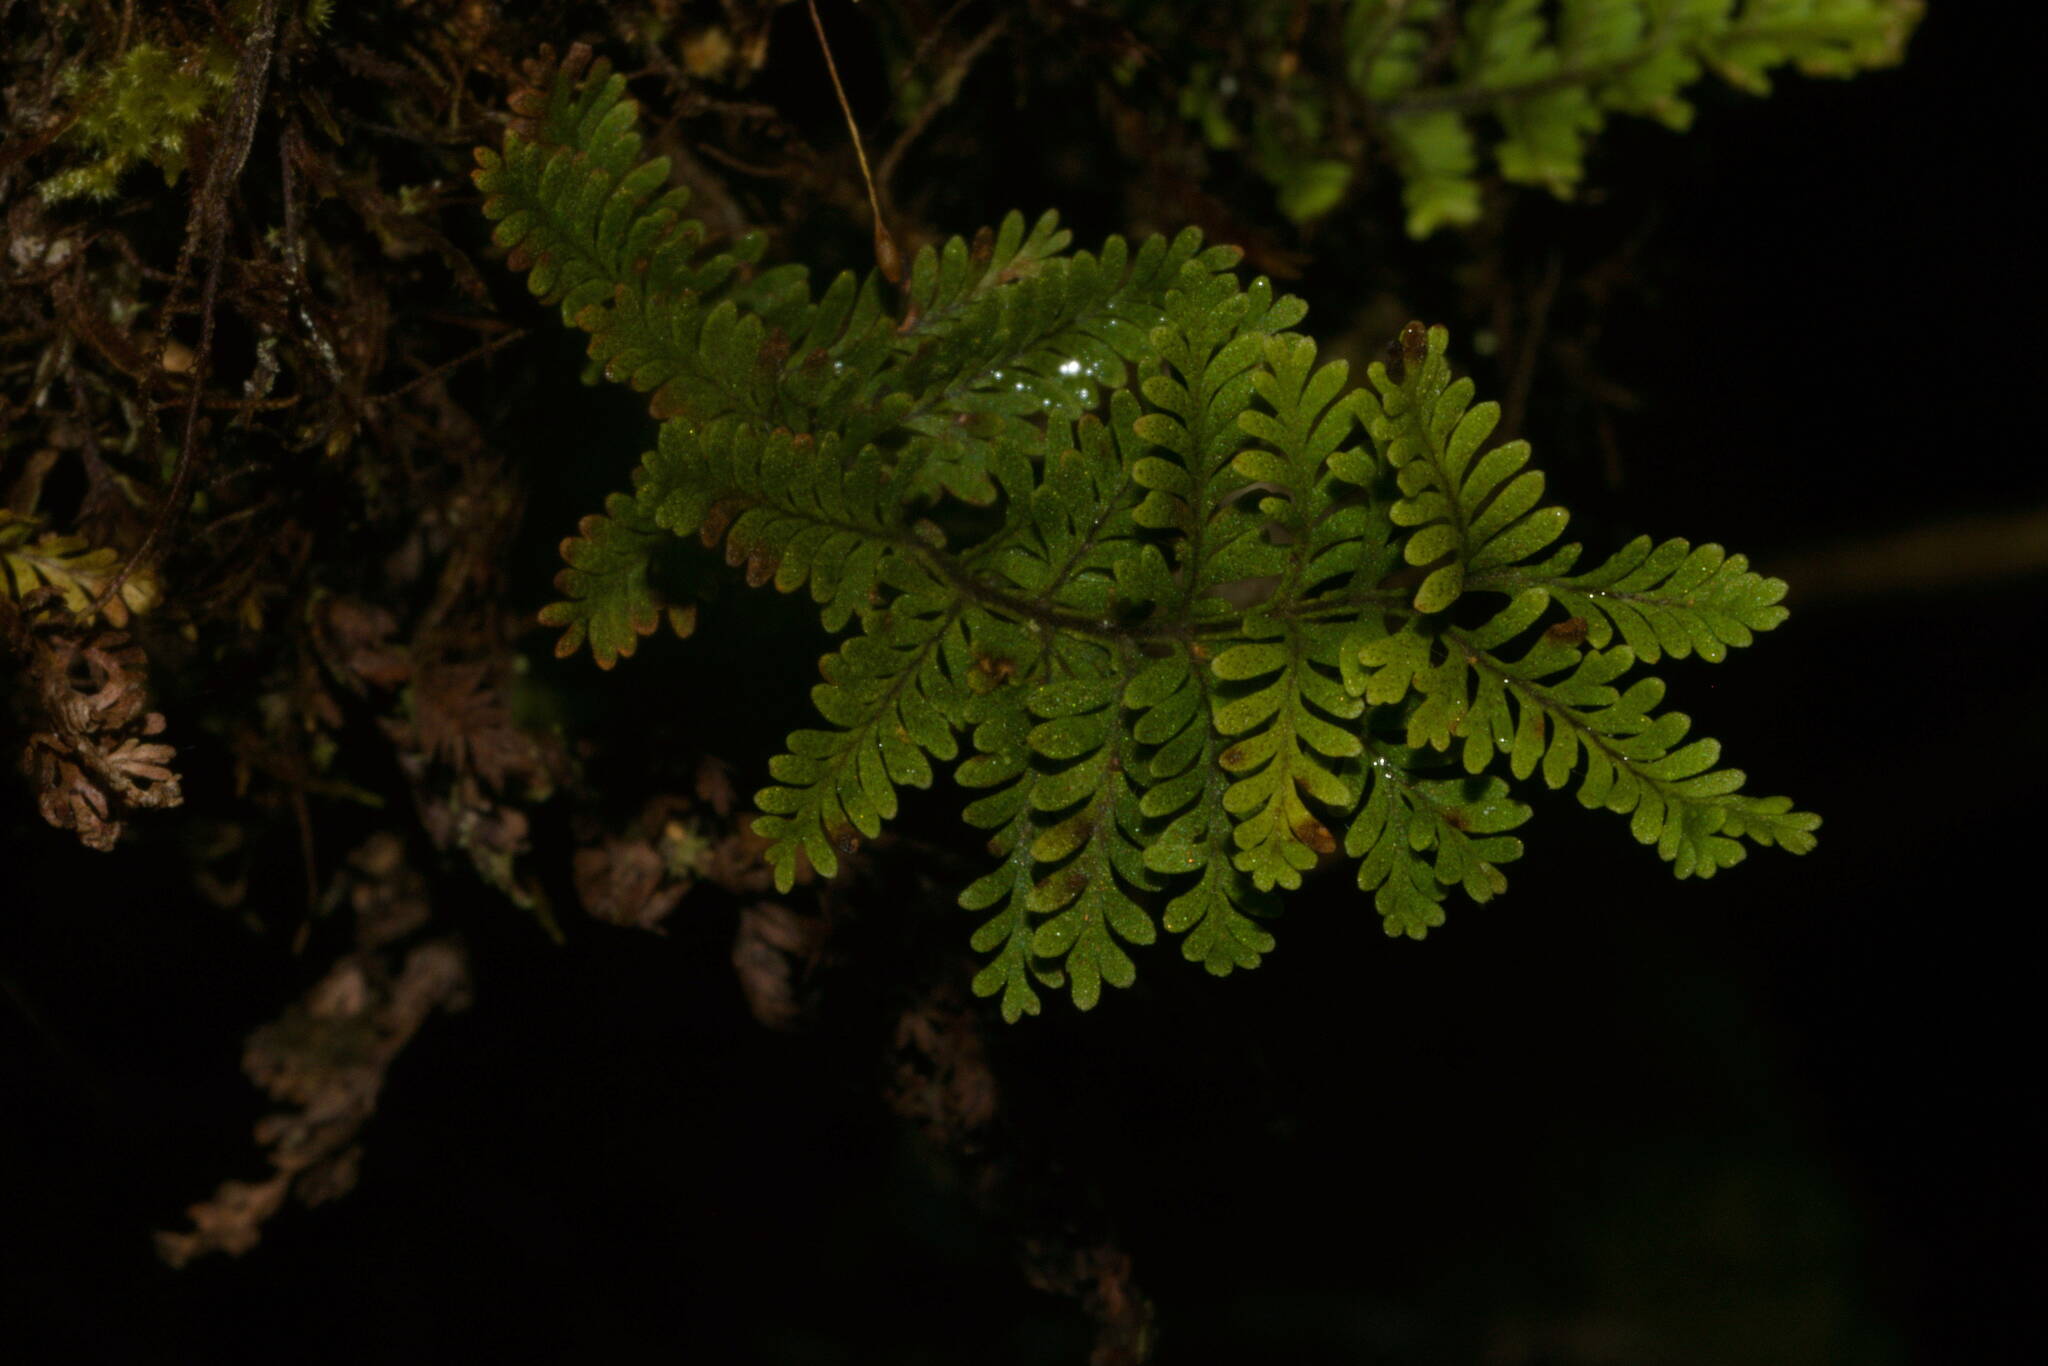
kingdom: Plantae
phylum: Tracheophyta
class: Polypodiopsida
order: Polypodiales
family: Polypodiaceae
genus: Adenophorus
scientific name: Adenophorus tamariscinus
